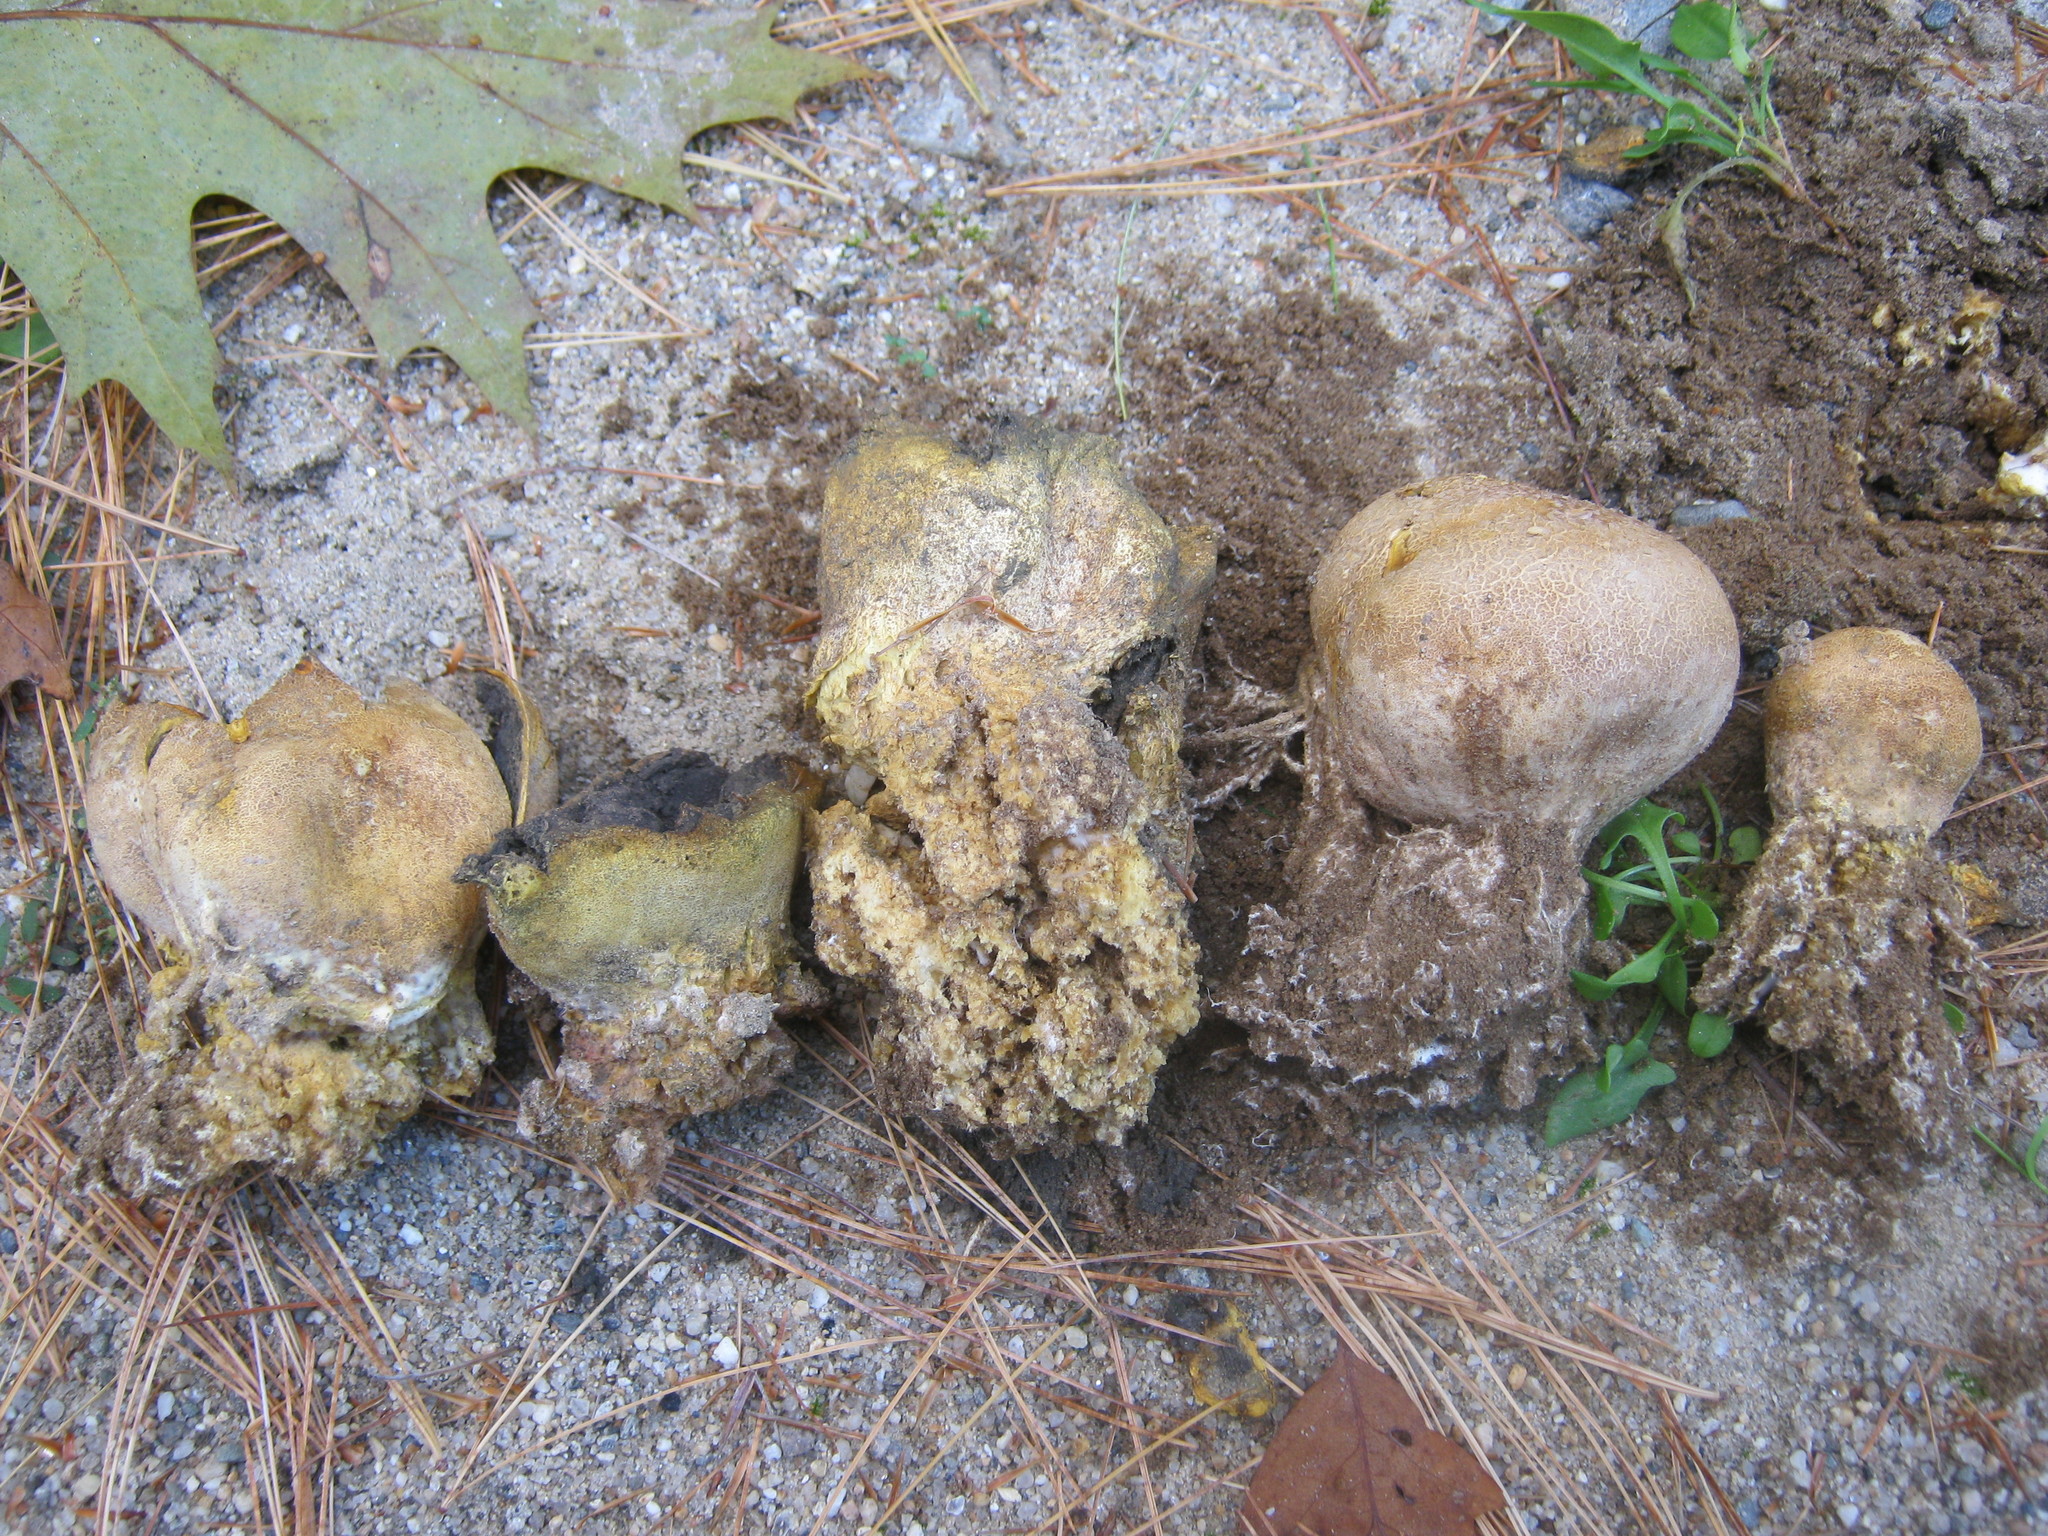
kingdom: Fungi
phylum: Basidiomycota
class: Agaricomycetes
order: Boletales
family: Sclerodermataceae
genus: Scleroderma
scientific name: Scleroderma meridionale
